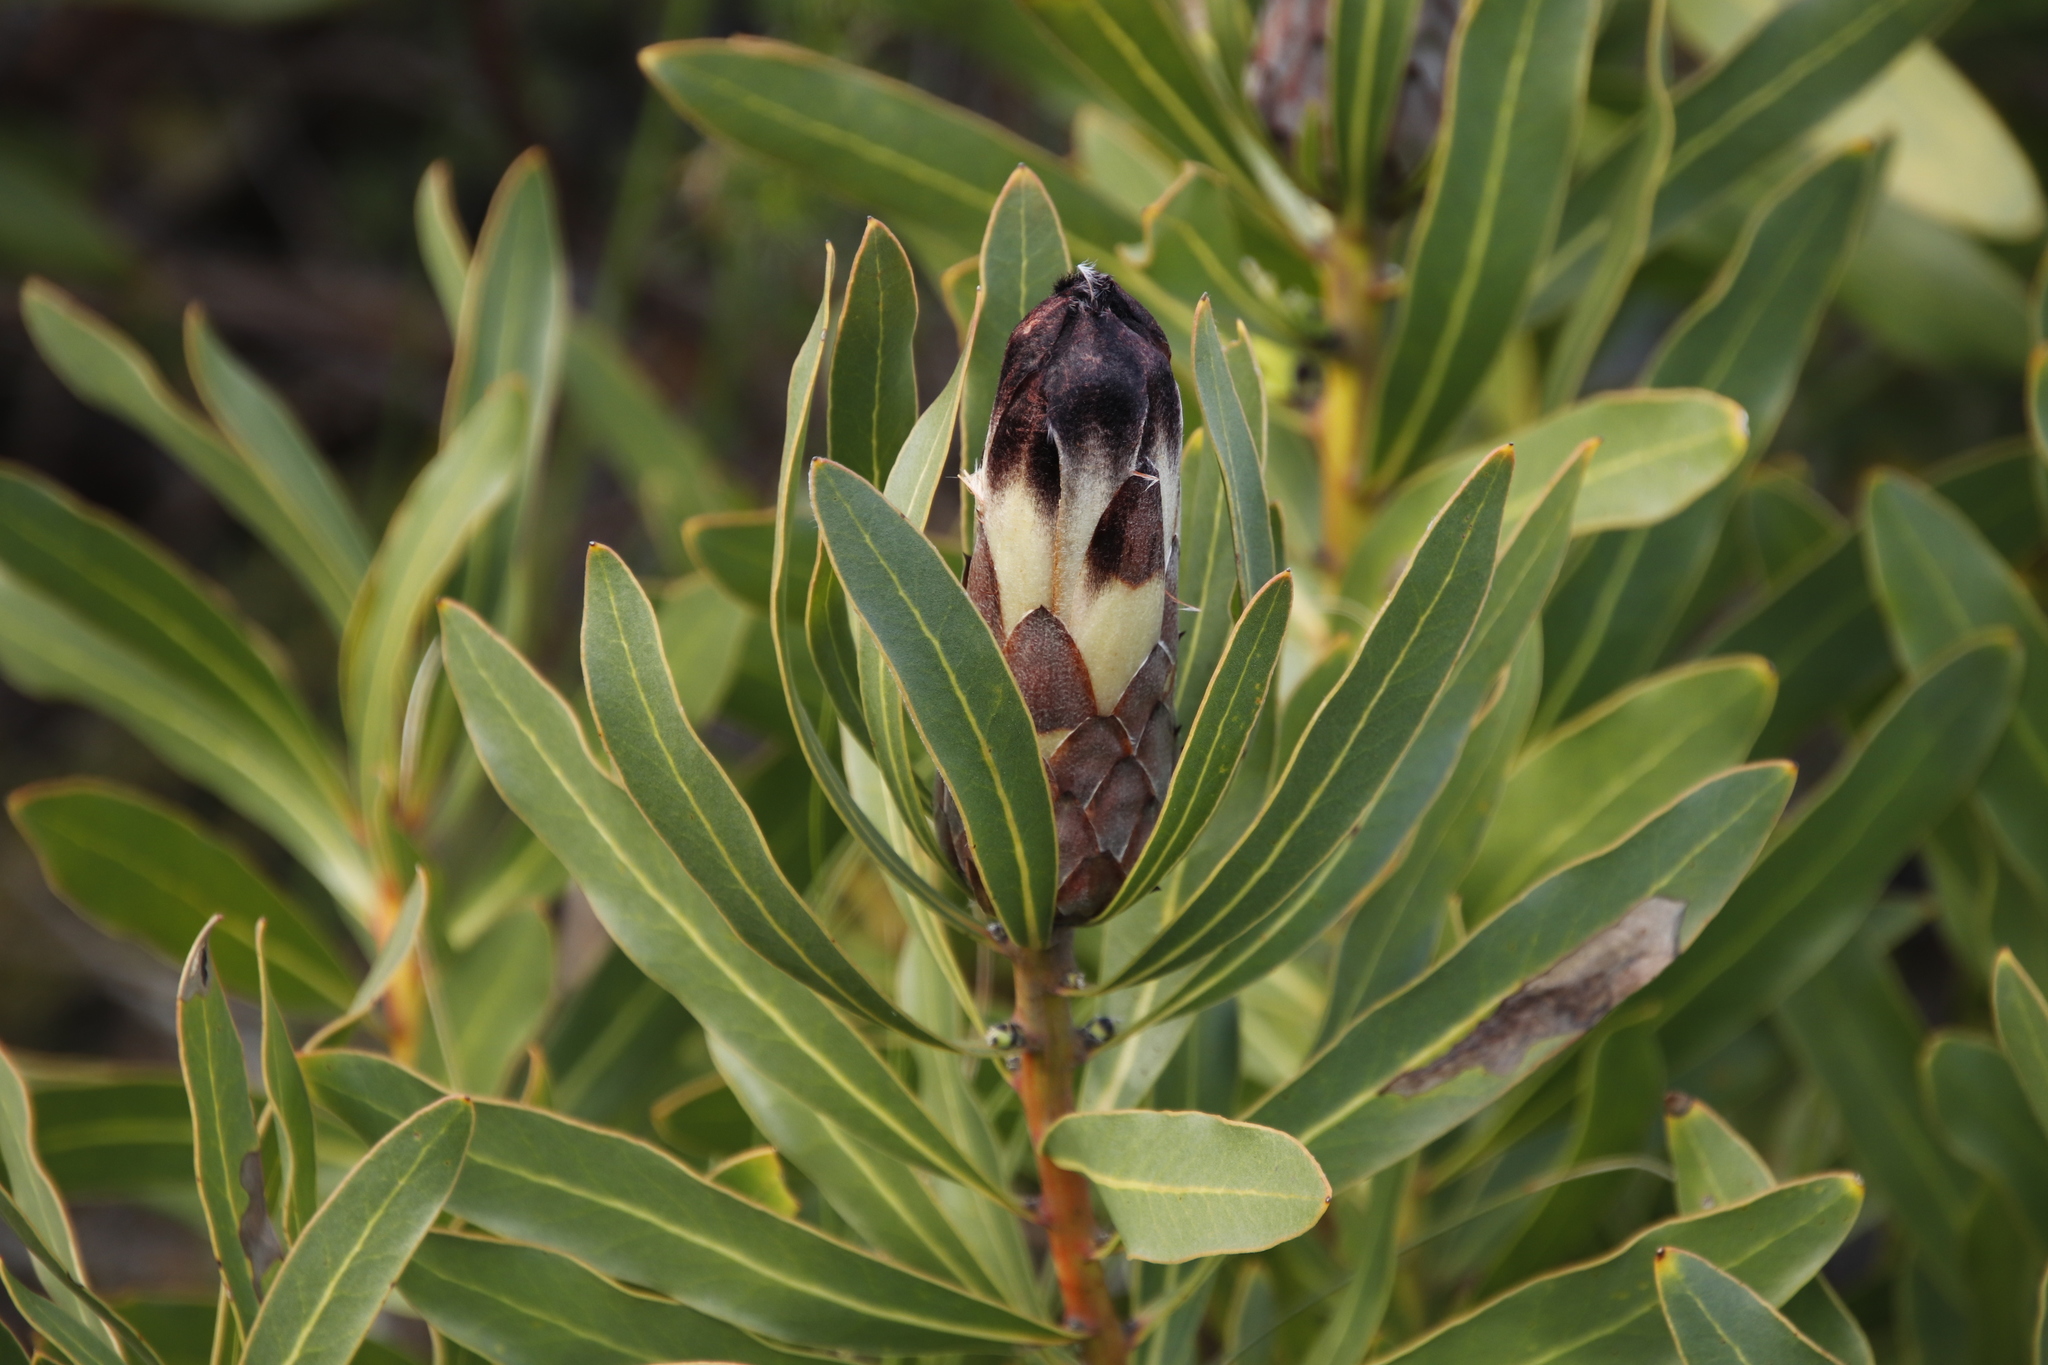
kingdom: Plantae
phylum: Tracheophyta
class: Magnoliopsida
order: Proteales
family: Proteaceae
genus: Protea
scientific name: Protea lepidocarpodendron
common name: Black-bearded protea
